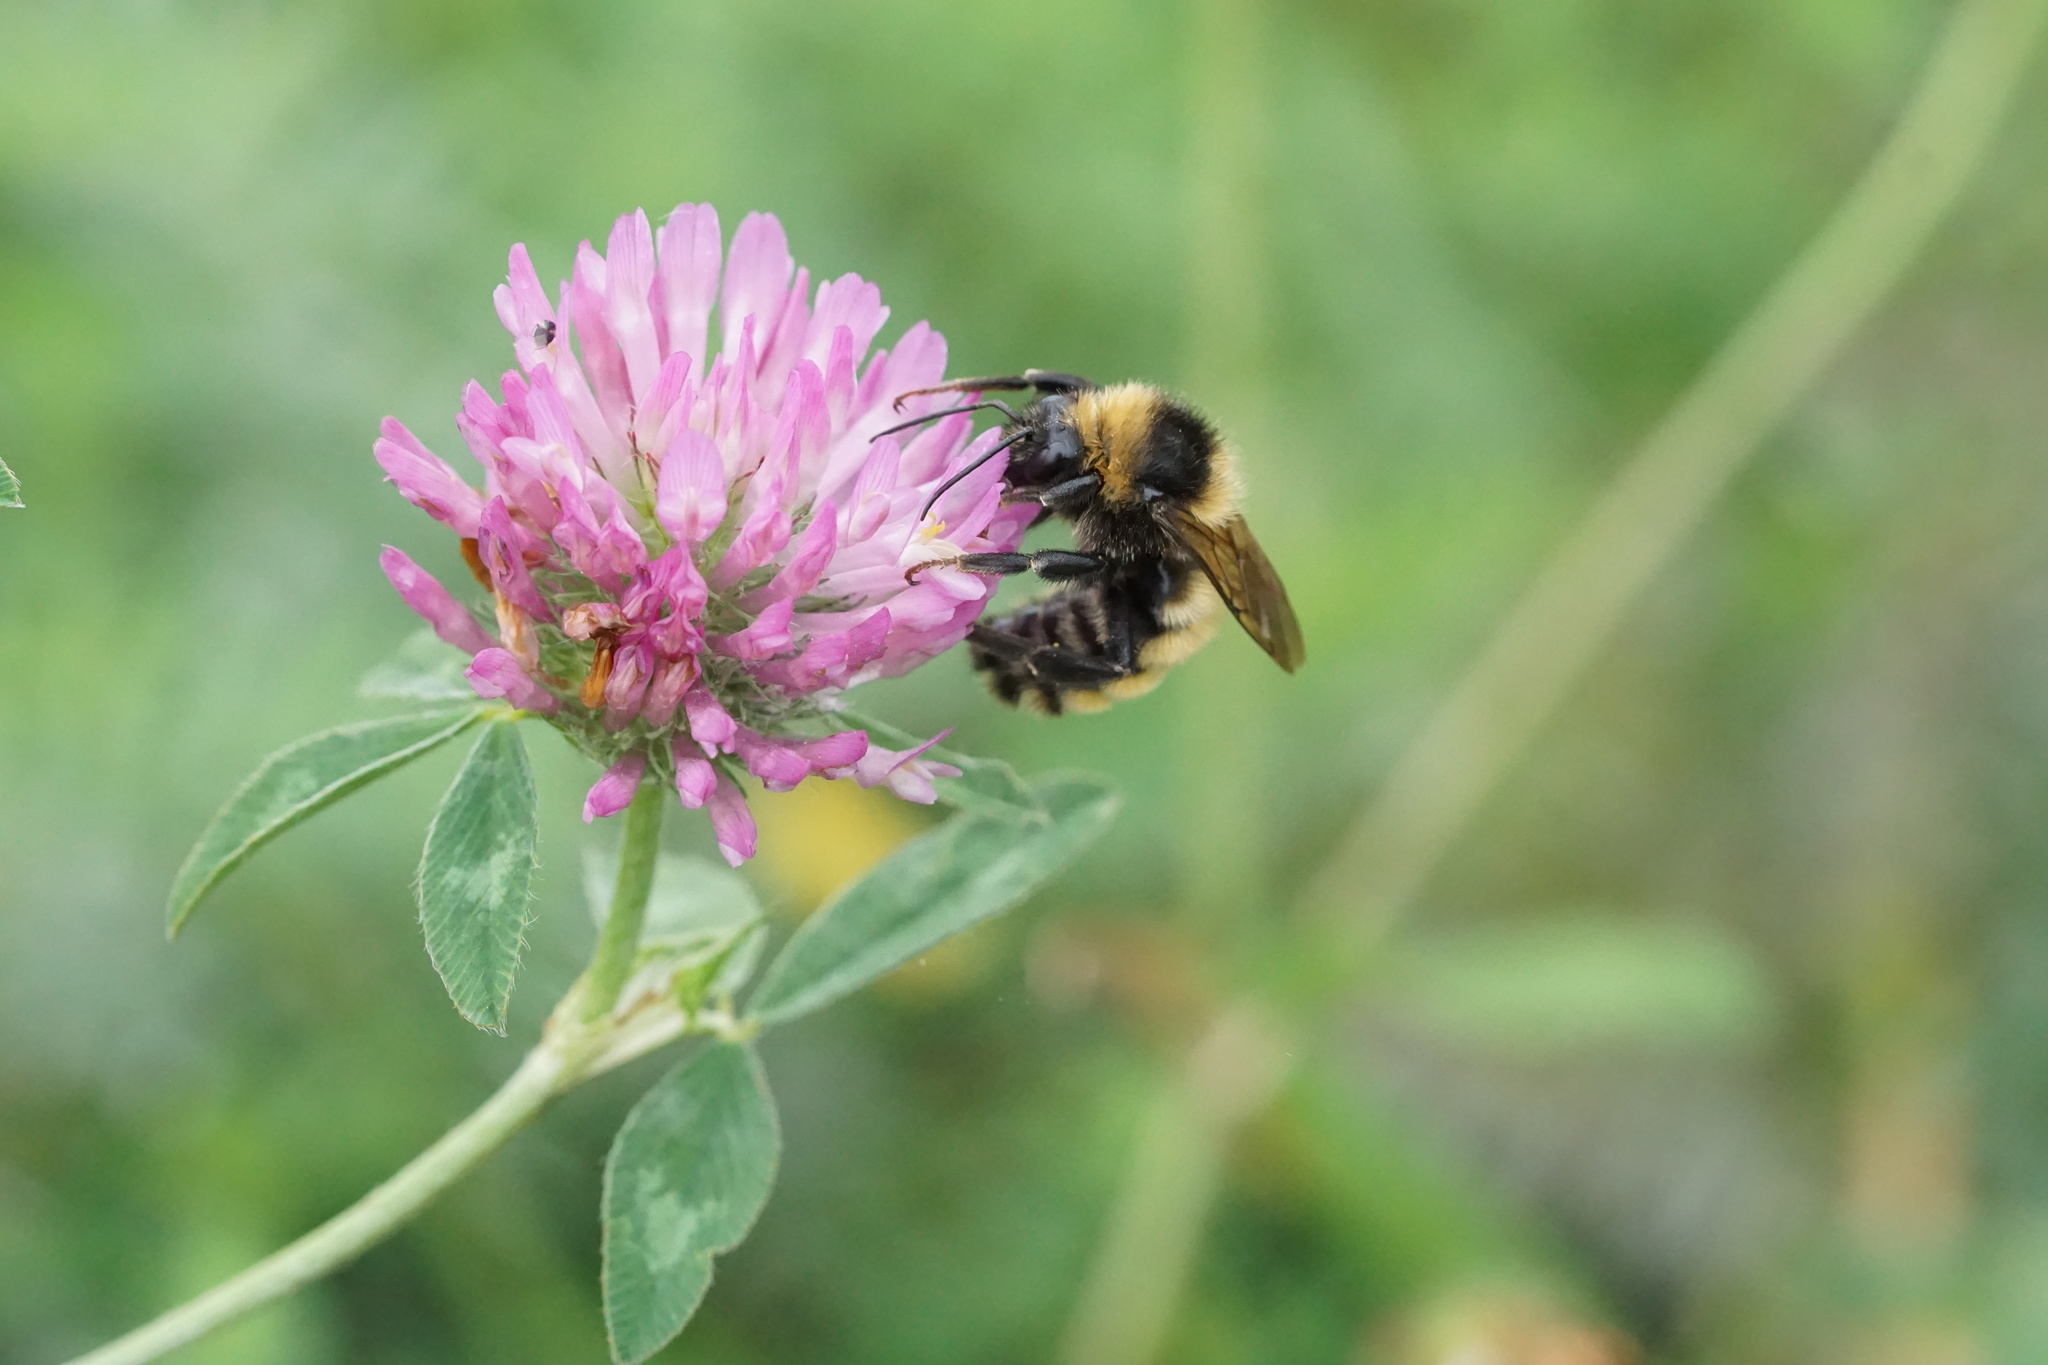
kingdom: Animalia
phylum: Arthropoda
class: Insecta
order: Hymenoptera
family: Apidae
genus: Bombus
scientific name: Bombus borealis
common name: Northern amber bumble bee
